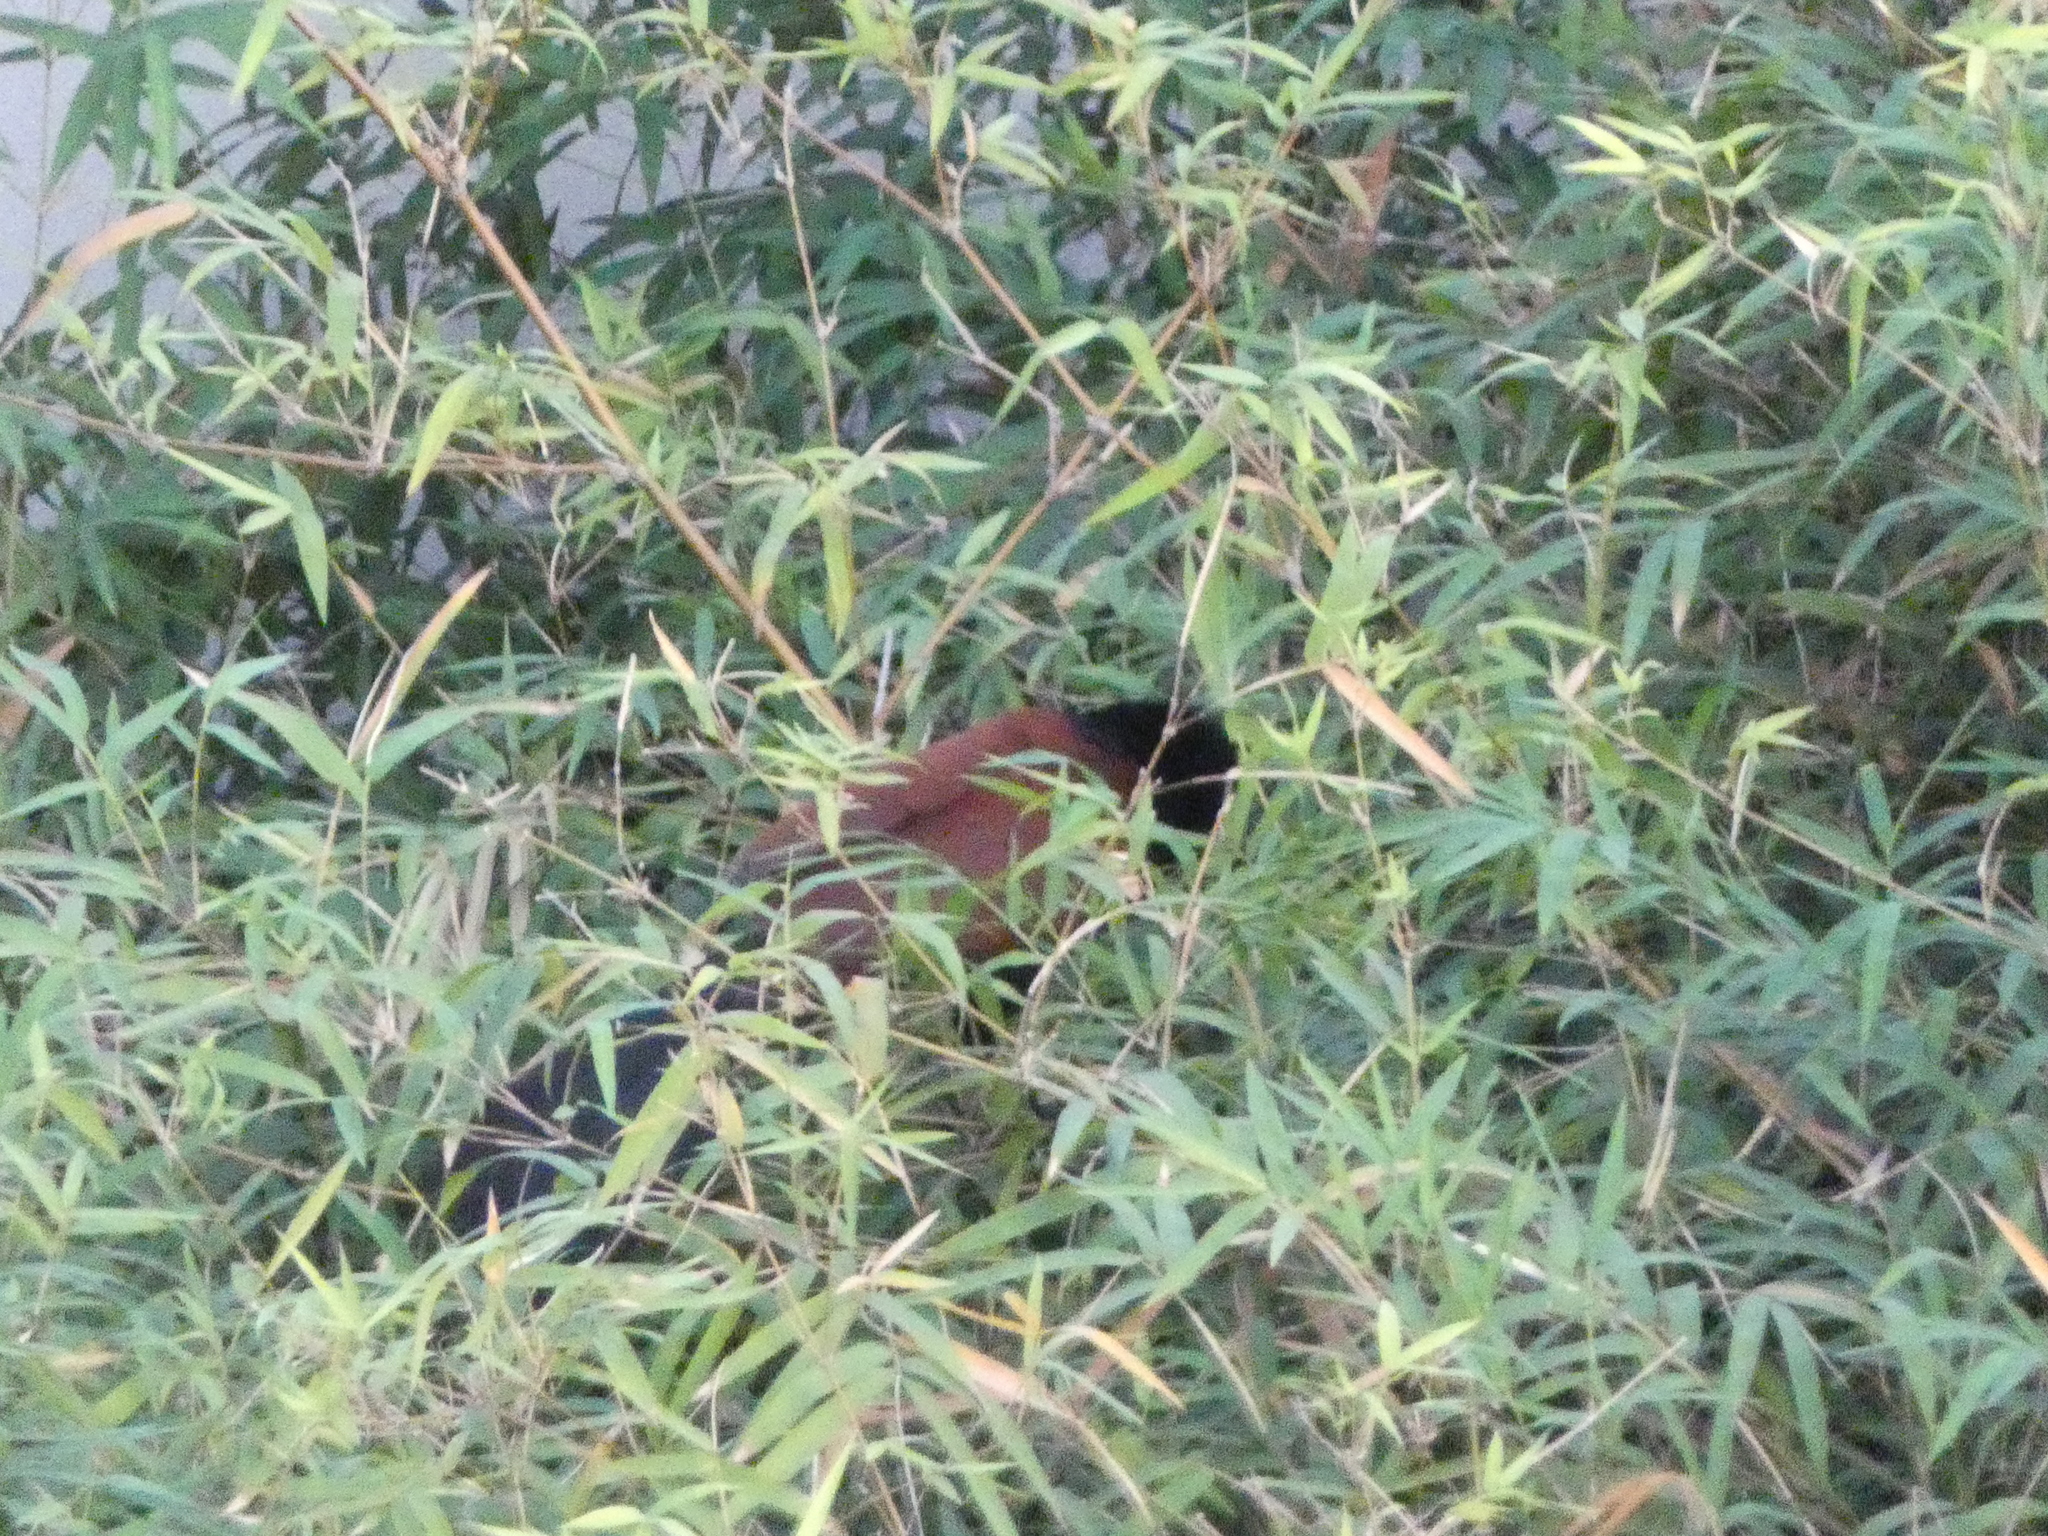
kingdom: Animalia
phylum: Chordata
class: Aves
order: Cuculiformes
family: Cuculidae
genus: Centropus
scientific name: Centropus sinensis
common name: Greater coucal
